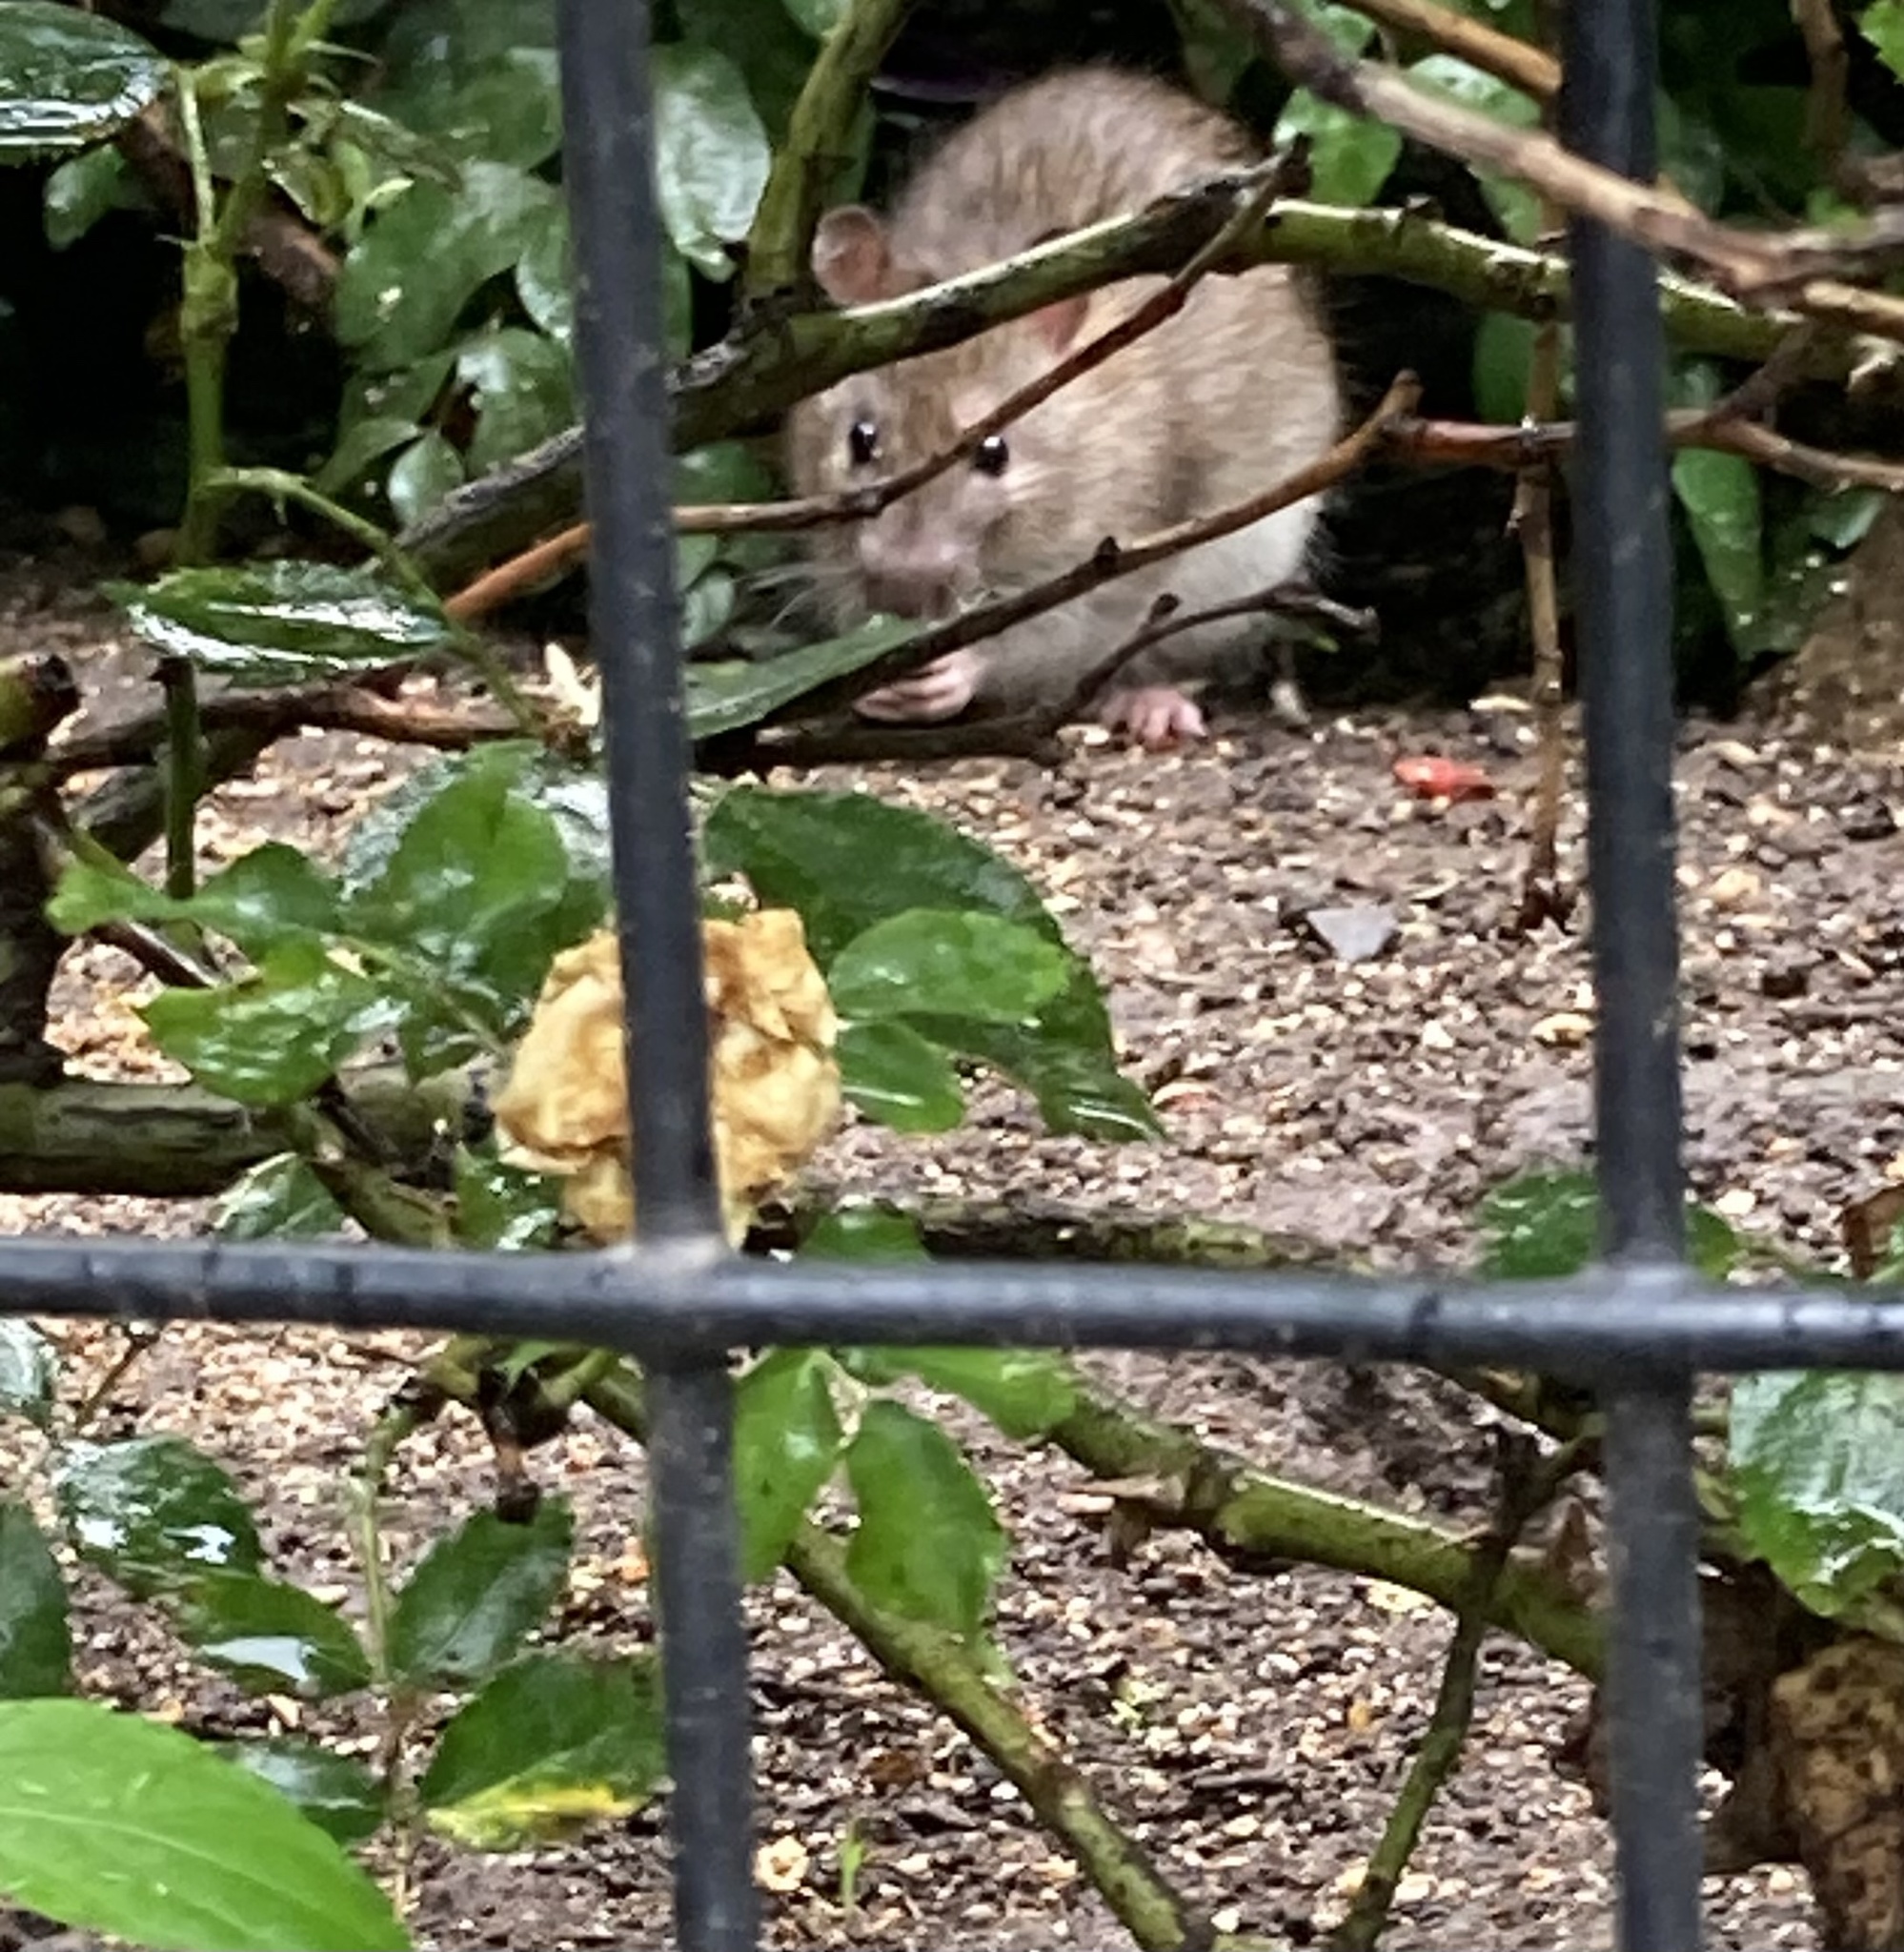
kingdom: Animalia
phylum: Chordata
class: Mammalia
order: Rodentia
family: Muridae
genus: Rattus
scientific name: Rattus norvegicus
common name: Brown rat
